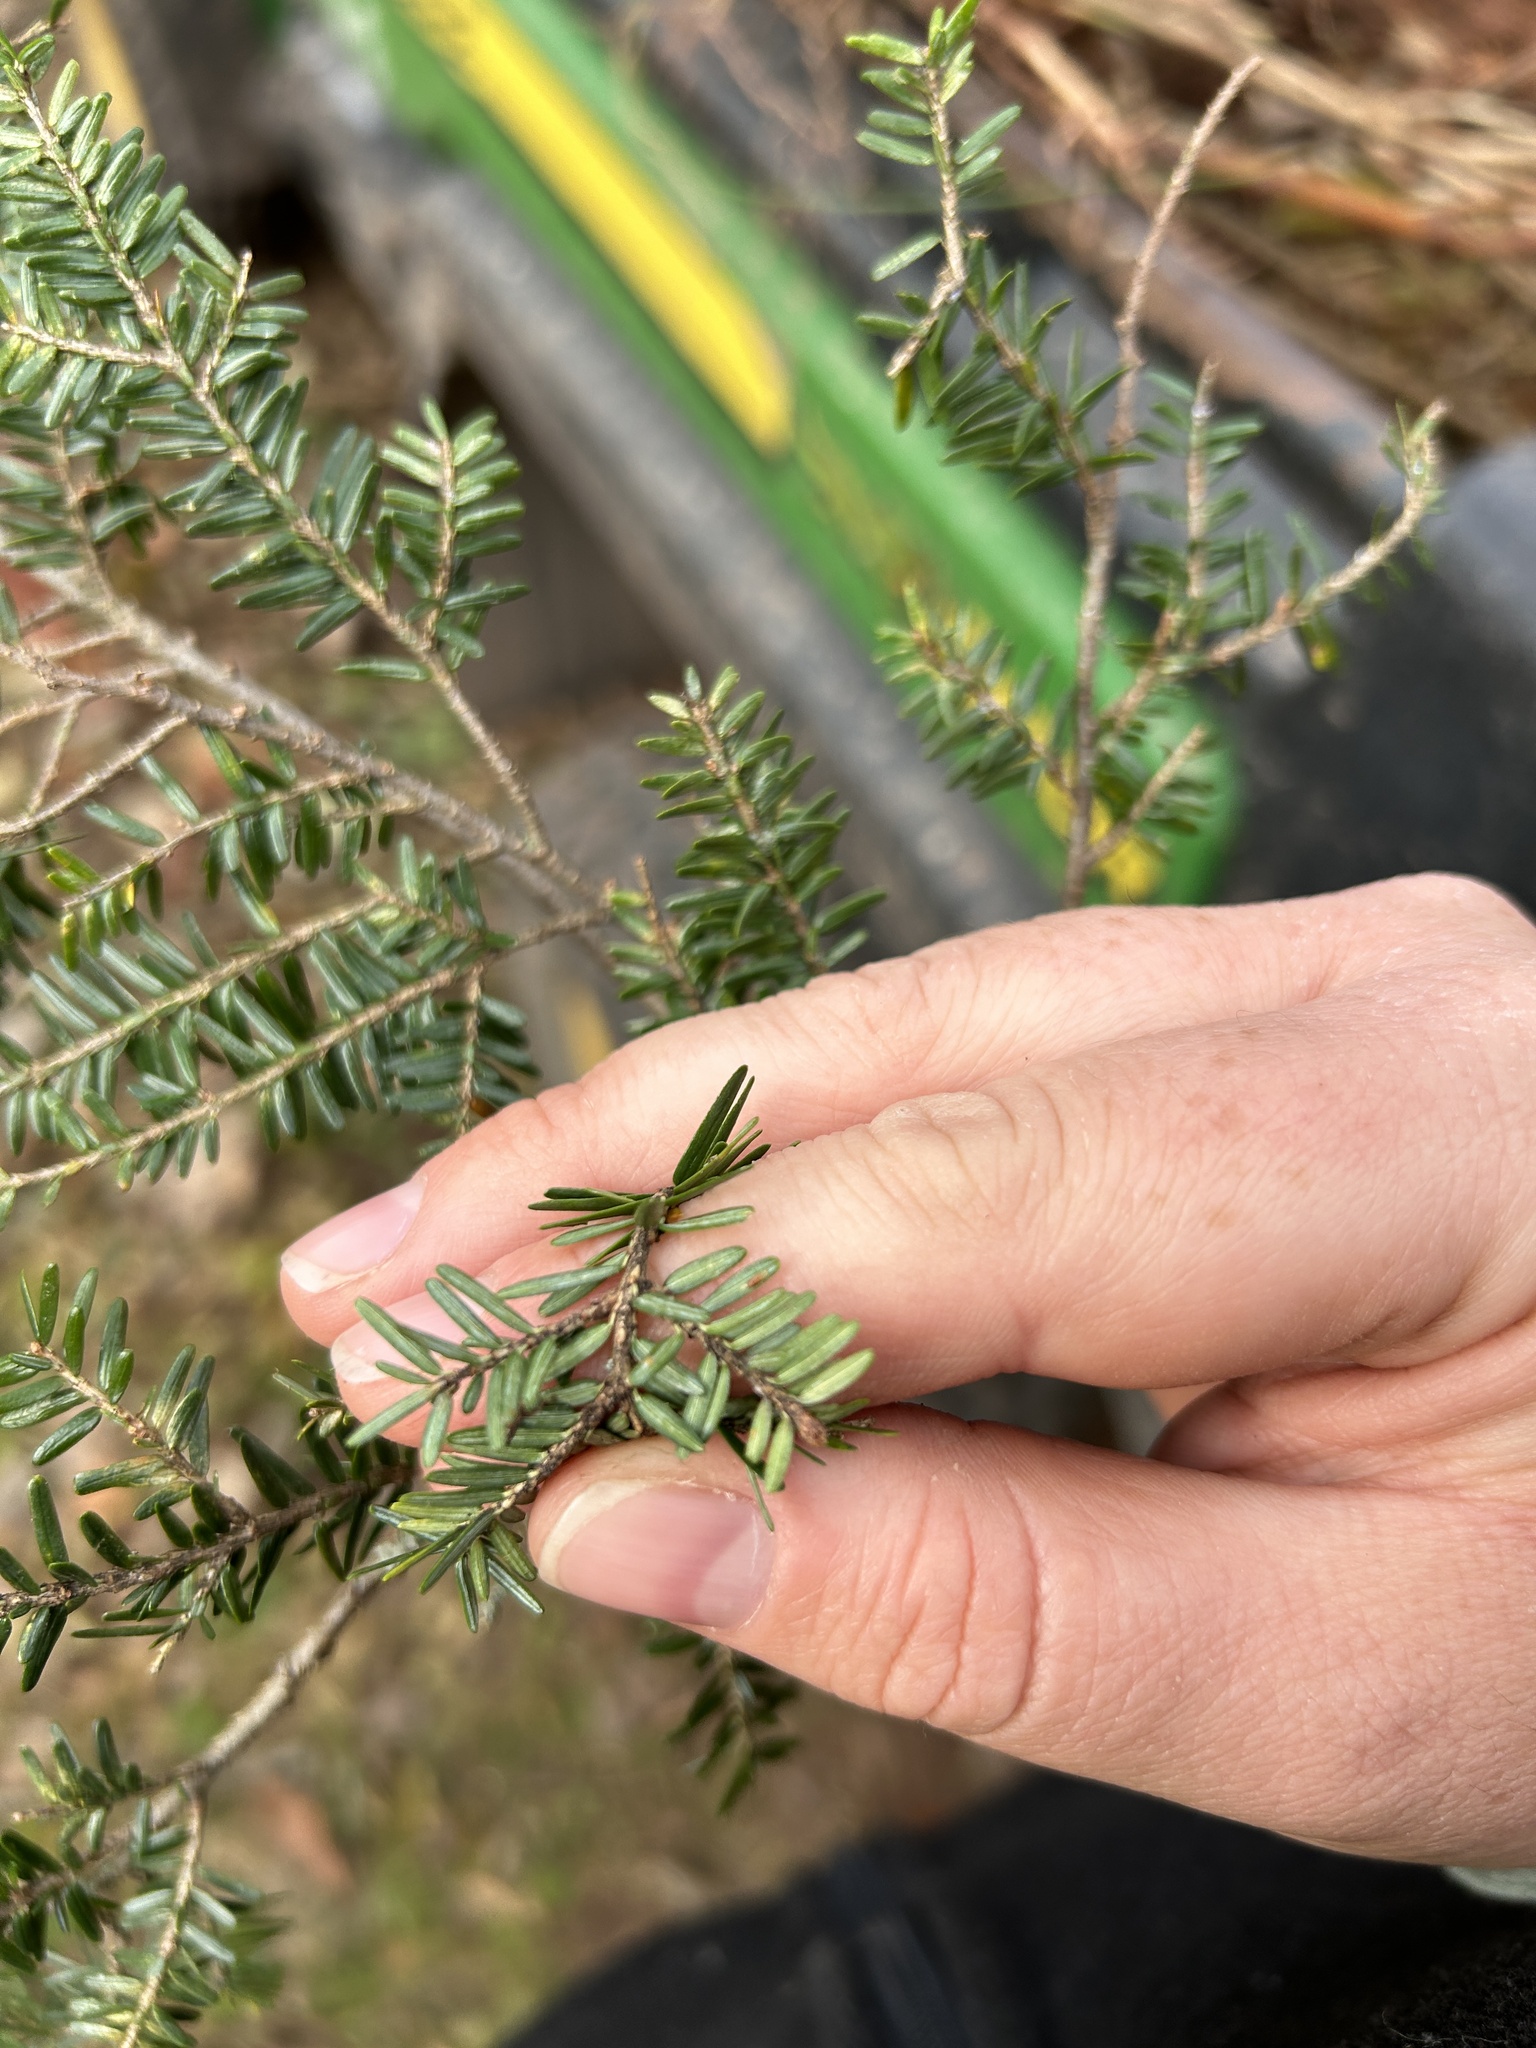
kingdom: Animalia
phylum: Arthropoda
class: Insecta
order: Hemiptera
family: Diaspididae
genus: Fiorinia
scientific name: Fiorinia externa
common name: Elongate hemlock scale
